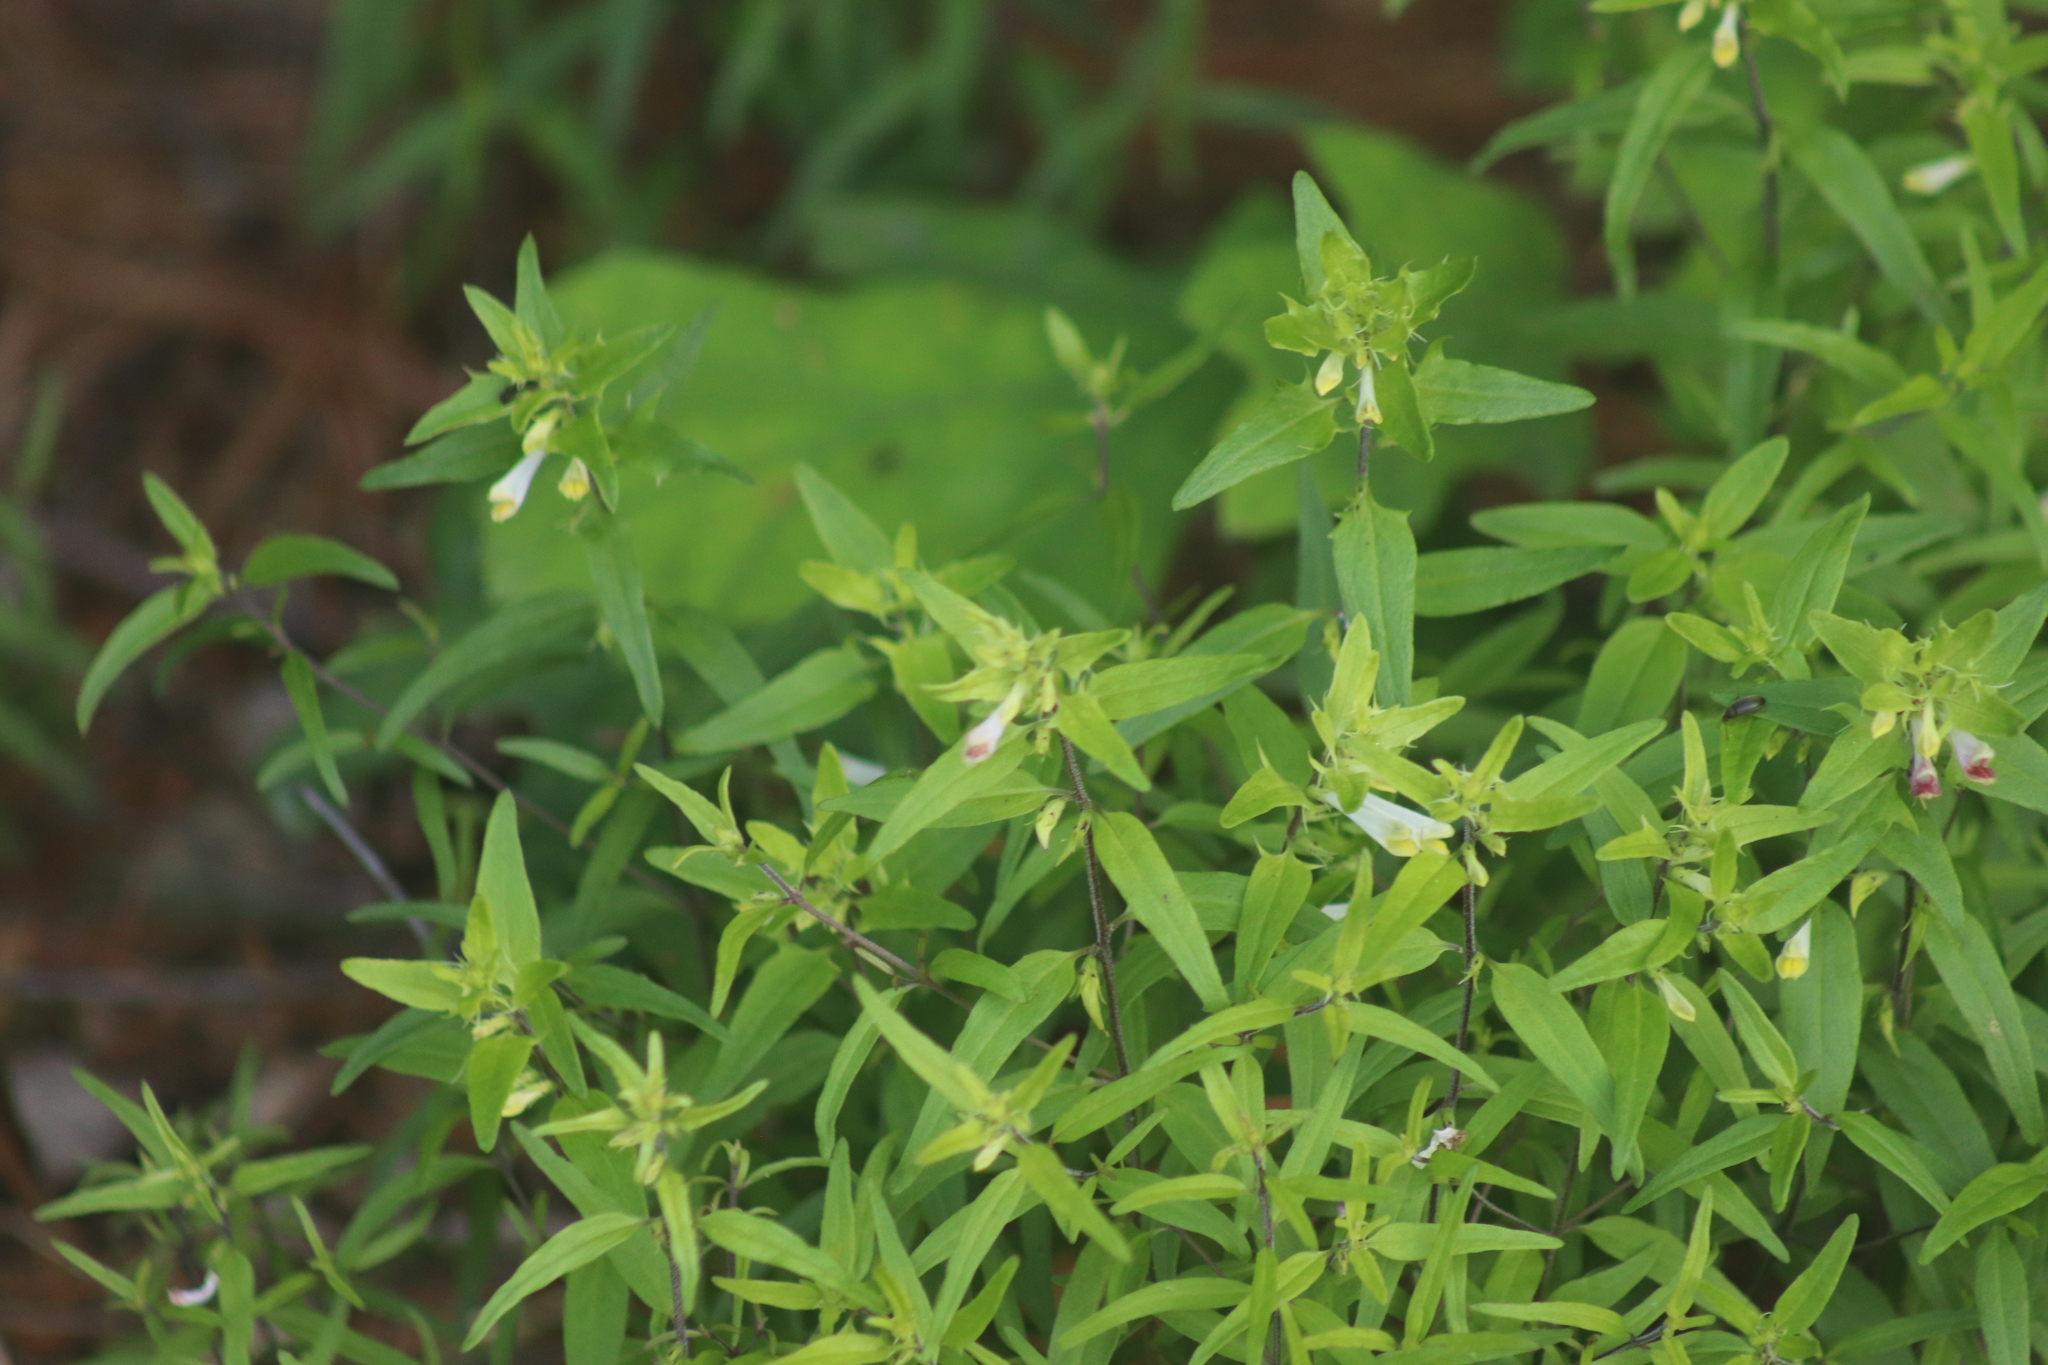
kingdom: Plantae
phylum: Tracheophyta
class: Magnoliopsida
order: Lamiales
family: Orobanchaceae
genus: Melampyrum
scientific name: Melampyrum lineare
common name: American cow-wheat
